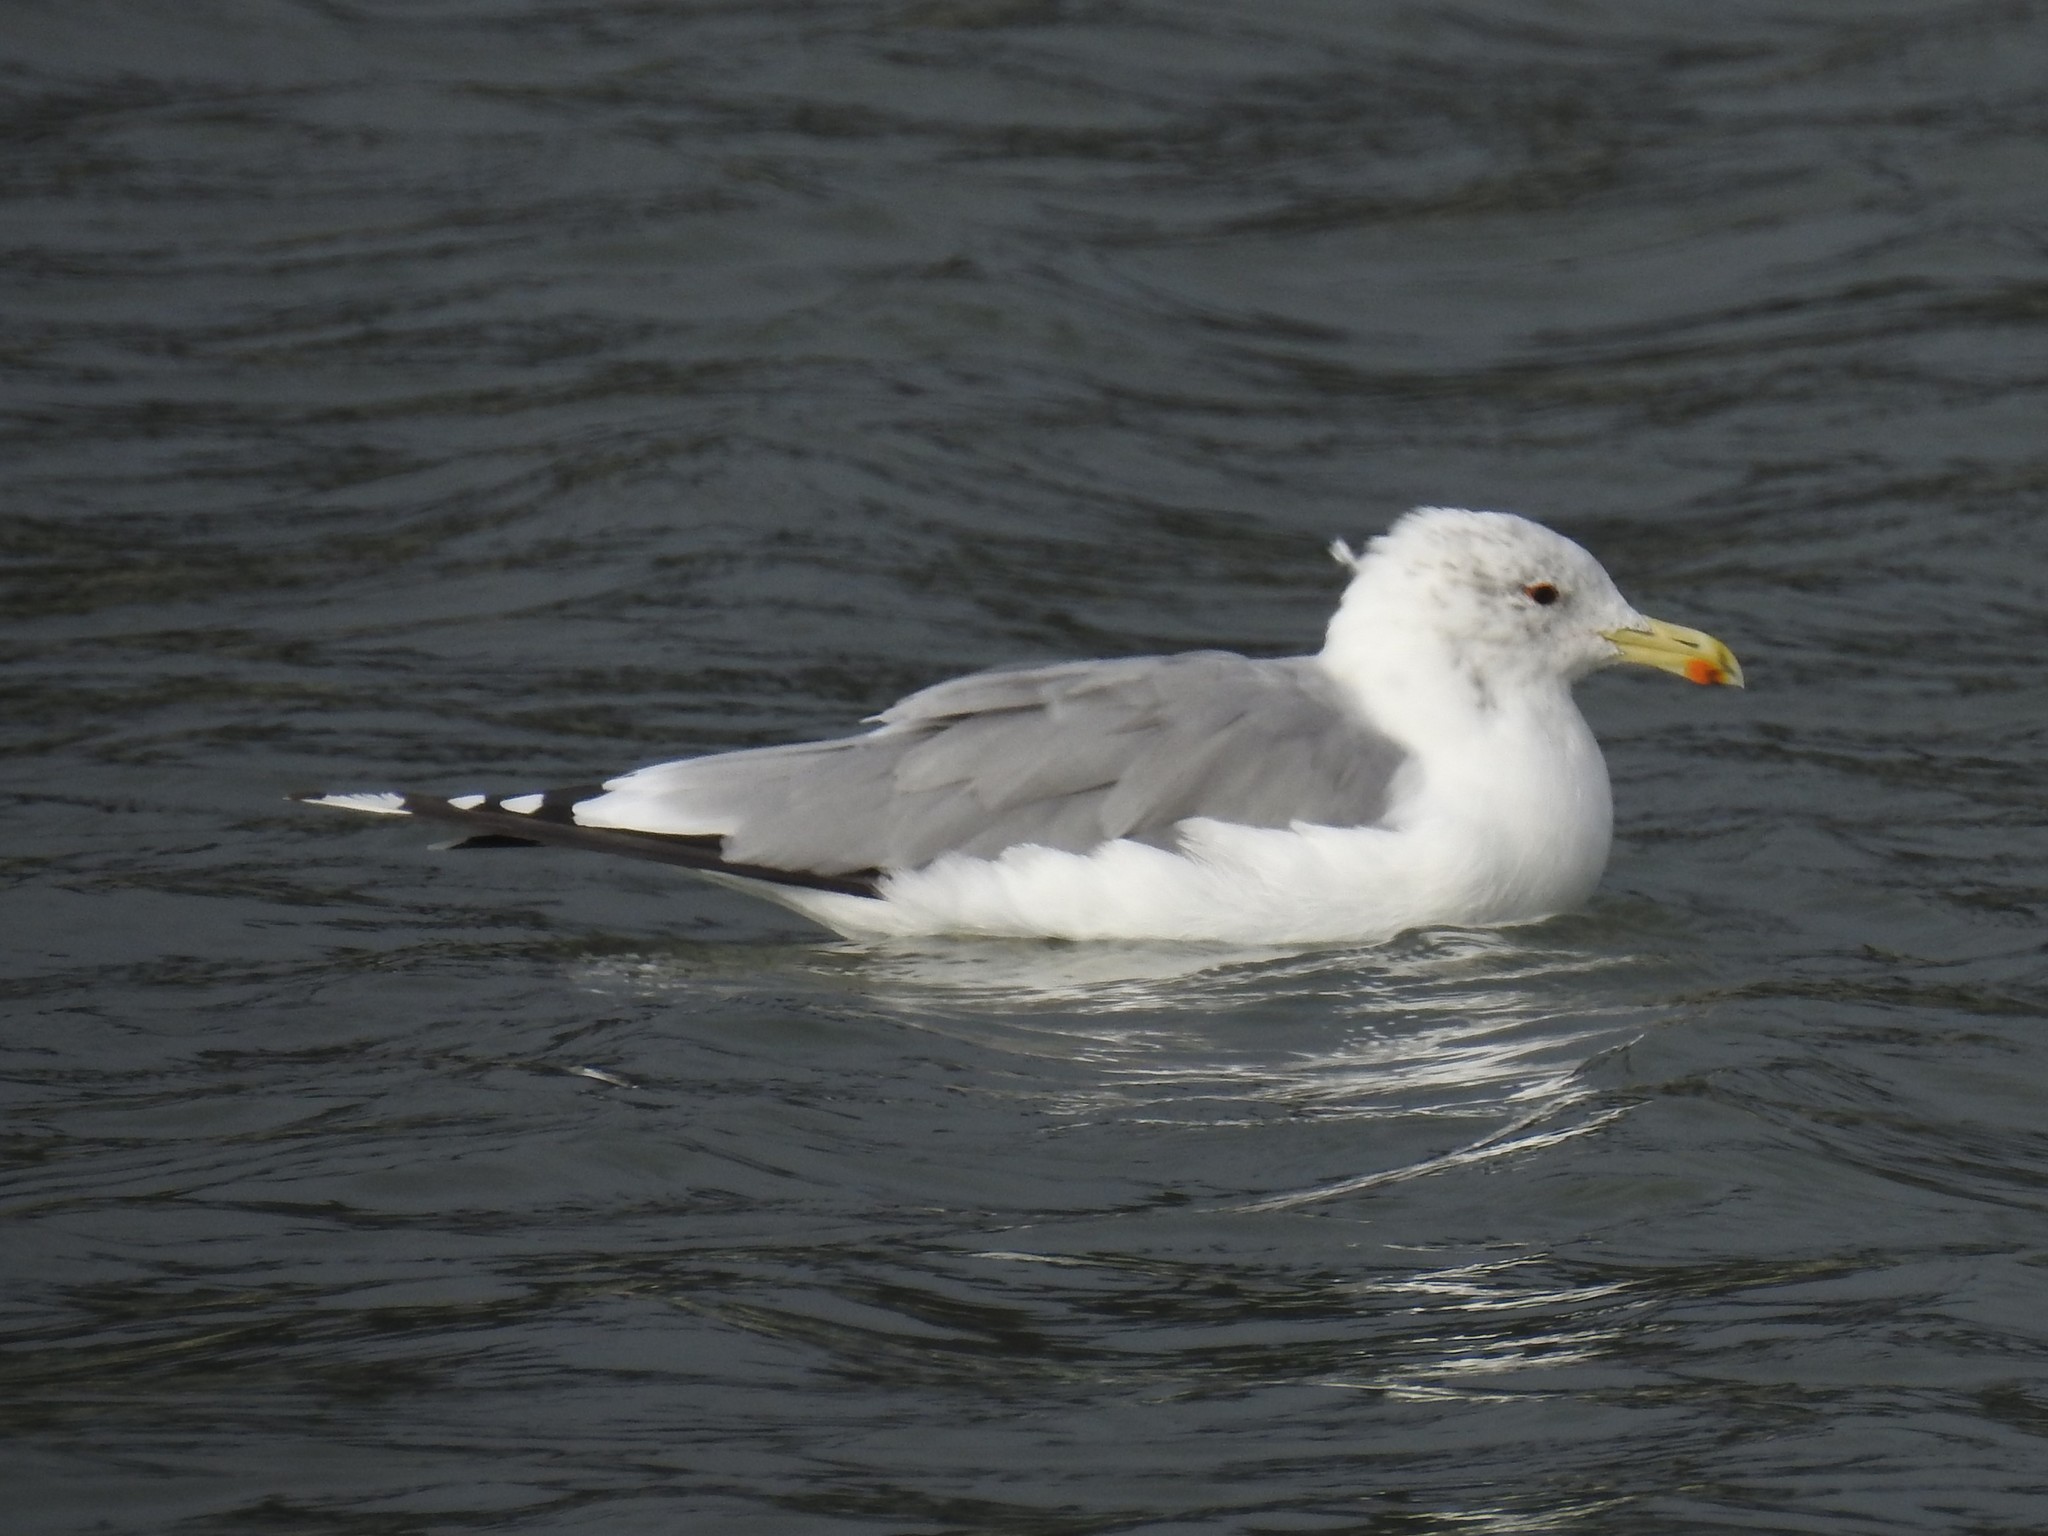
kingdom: Animalia
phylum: Chordata
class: Aves
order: Charadriiformes
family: Laridae
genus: Larus
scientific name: Larus californicus
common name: California gull
